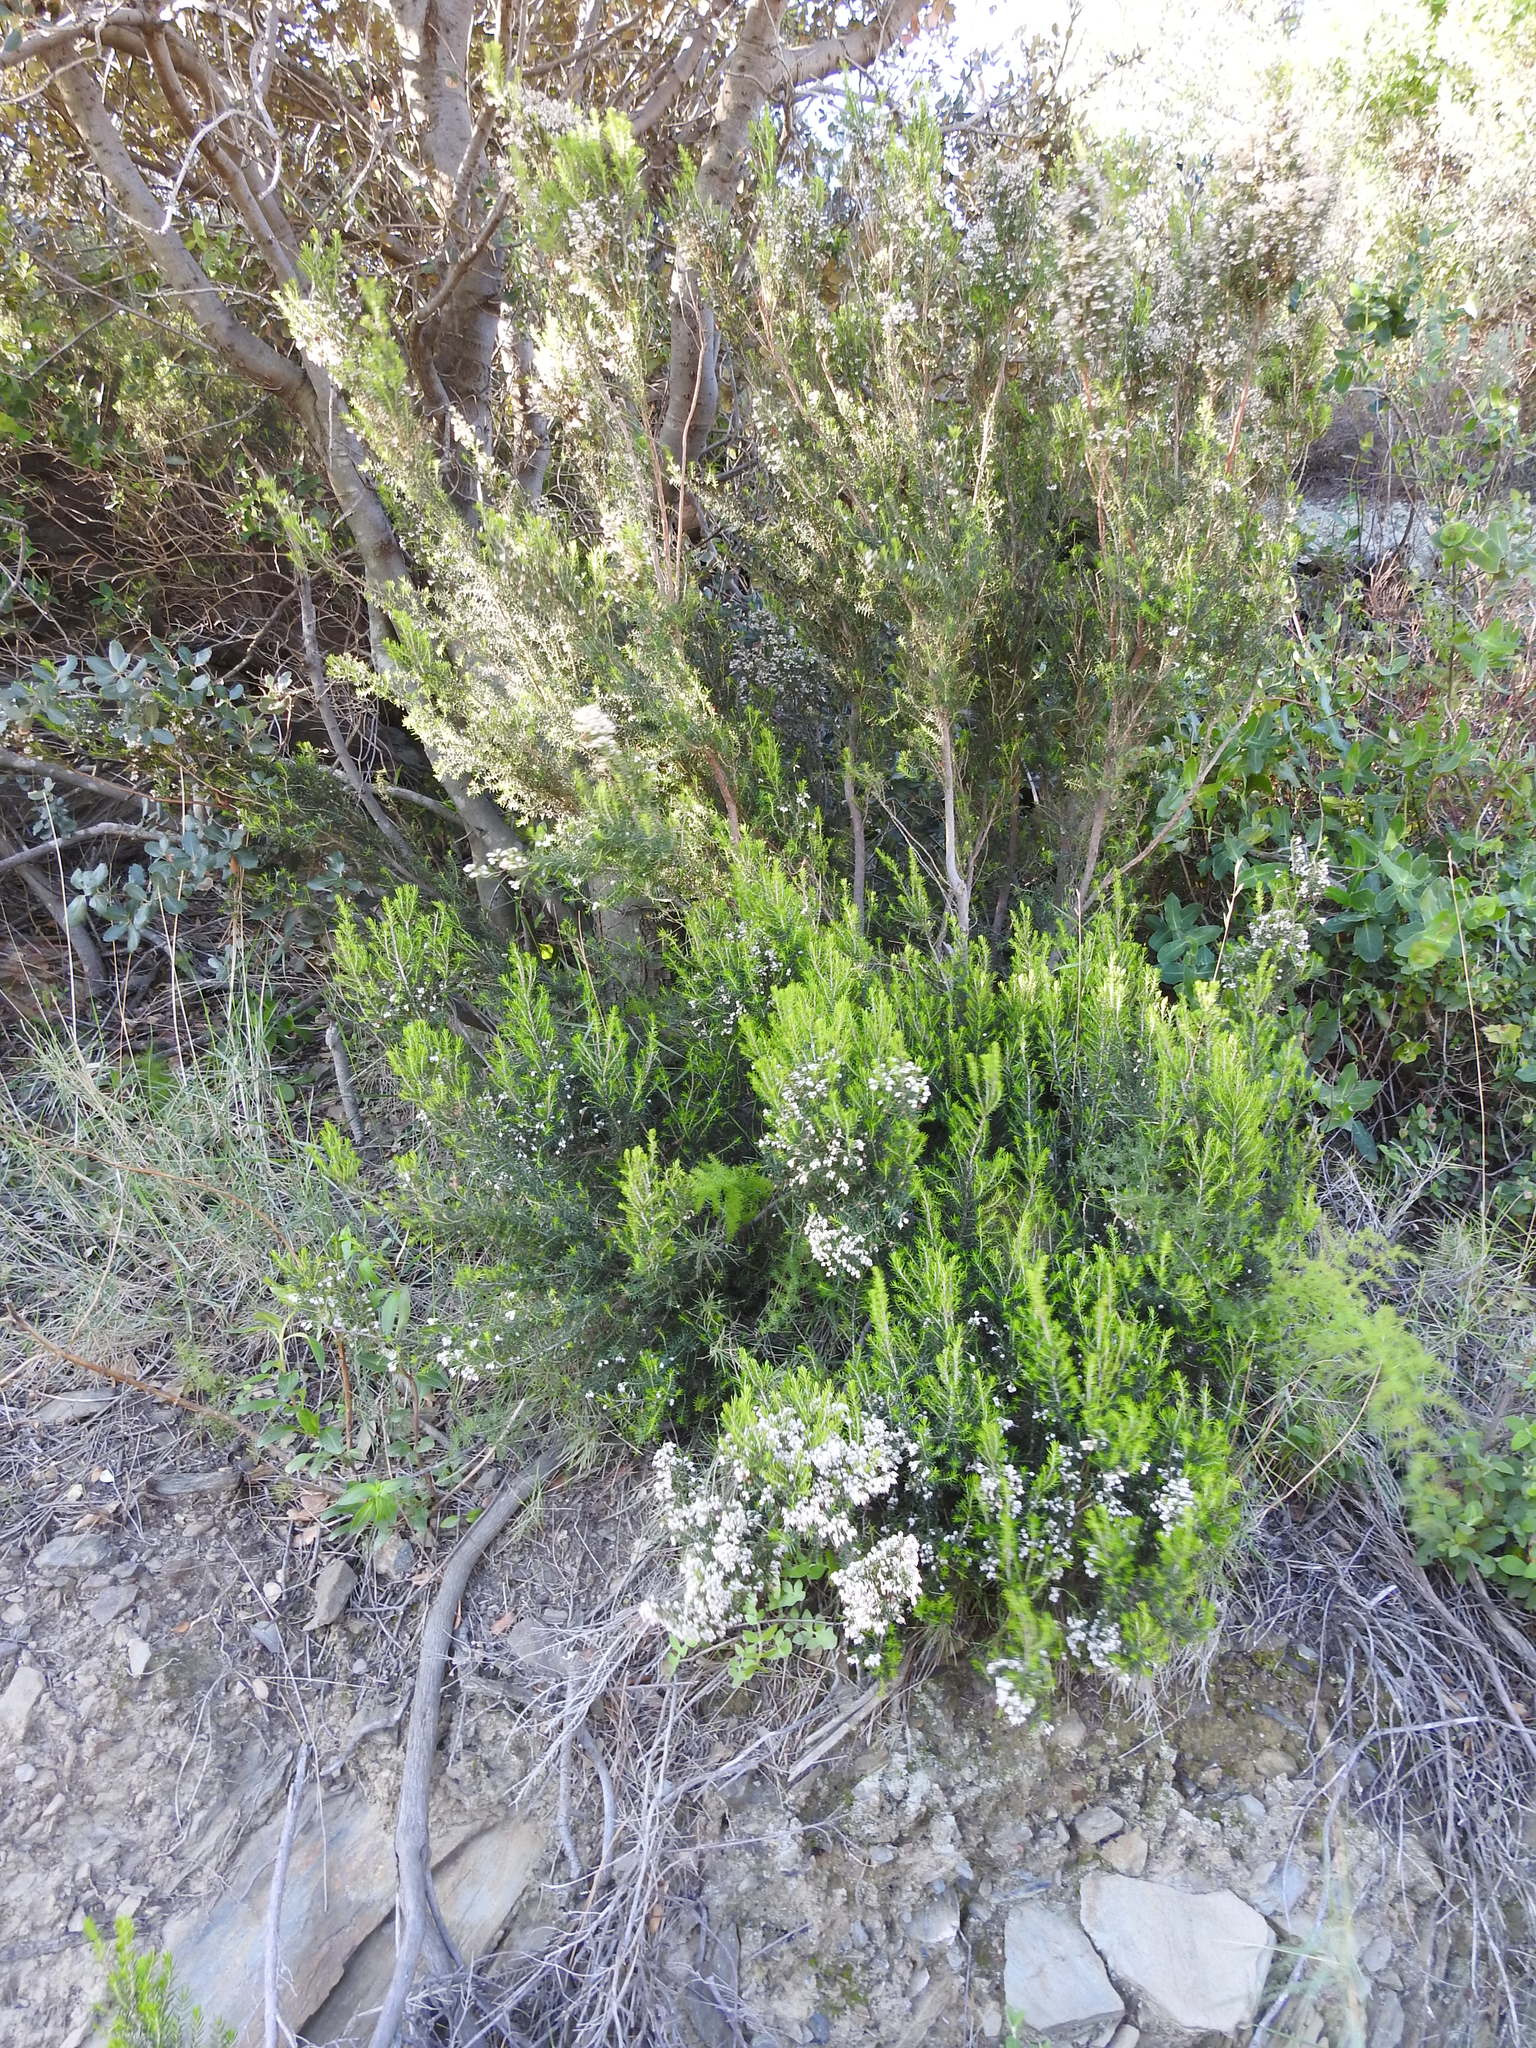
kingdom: Plantae
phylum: Tracheophyta
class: Magnoliopsida
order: Ericales
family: Ericaceae
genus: Erica
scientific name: Erica arborea
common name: Tree heath
